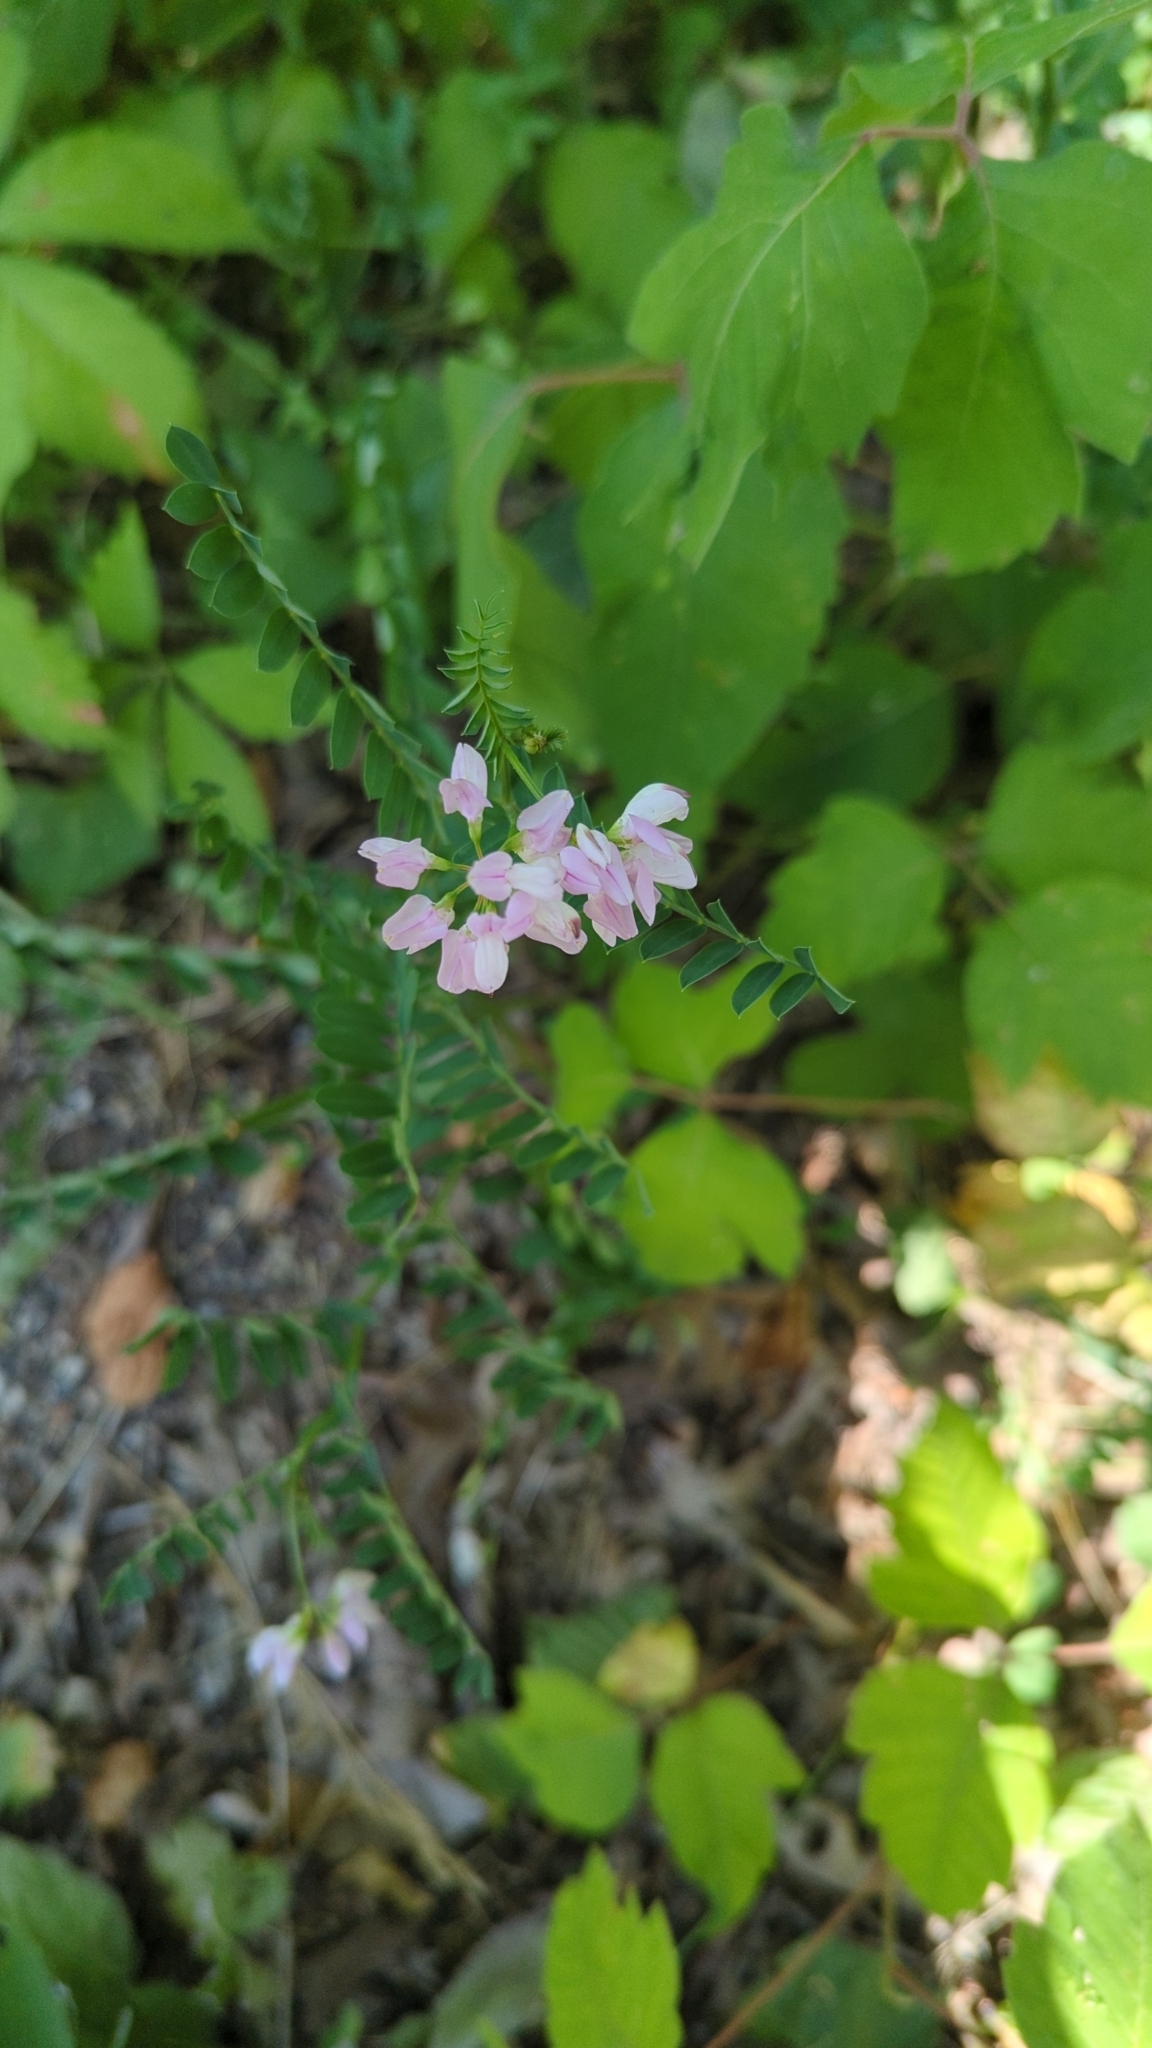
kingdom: Plantae
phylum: Tracheophyta
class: Magnoliopsida
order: Fabales
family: Fabaceae
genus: Coronilla
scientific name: Coronilla varia
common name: Crownvetch
